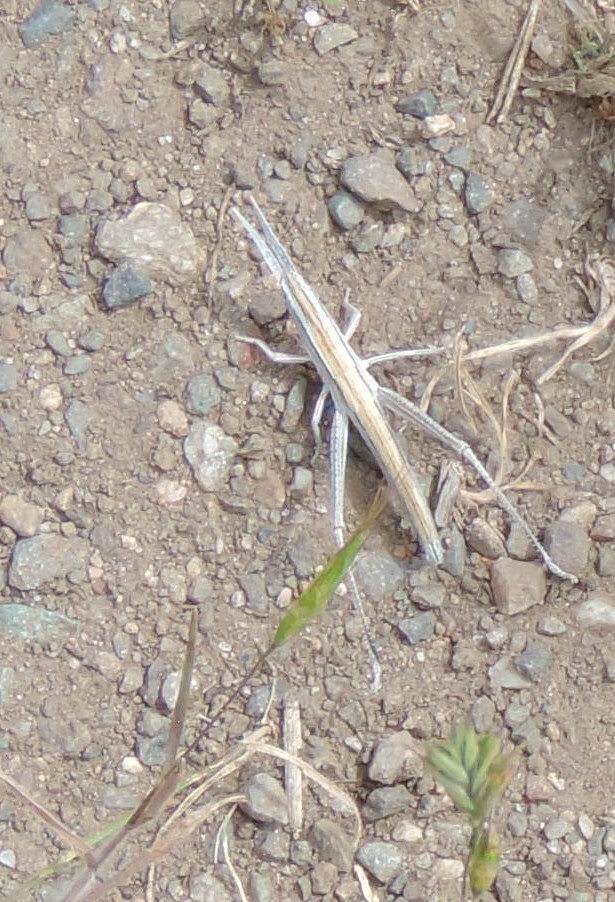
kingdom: Animalia
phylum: Arthropoda
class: Insecta
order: Orthoptera
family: Acrididae
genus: Pseudopomala
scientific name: Pseudopomala brachyptera
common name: Bunchgrass grasshopper
